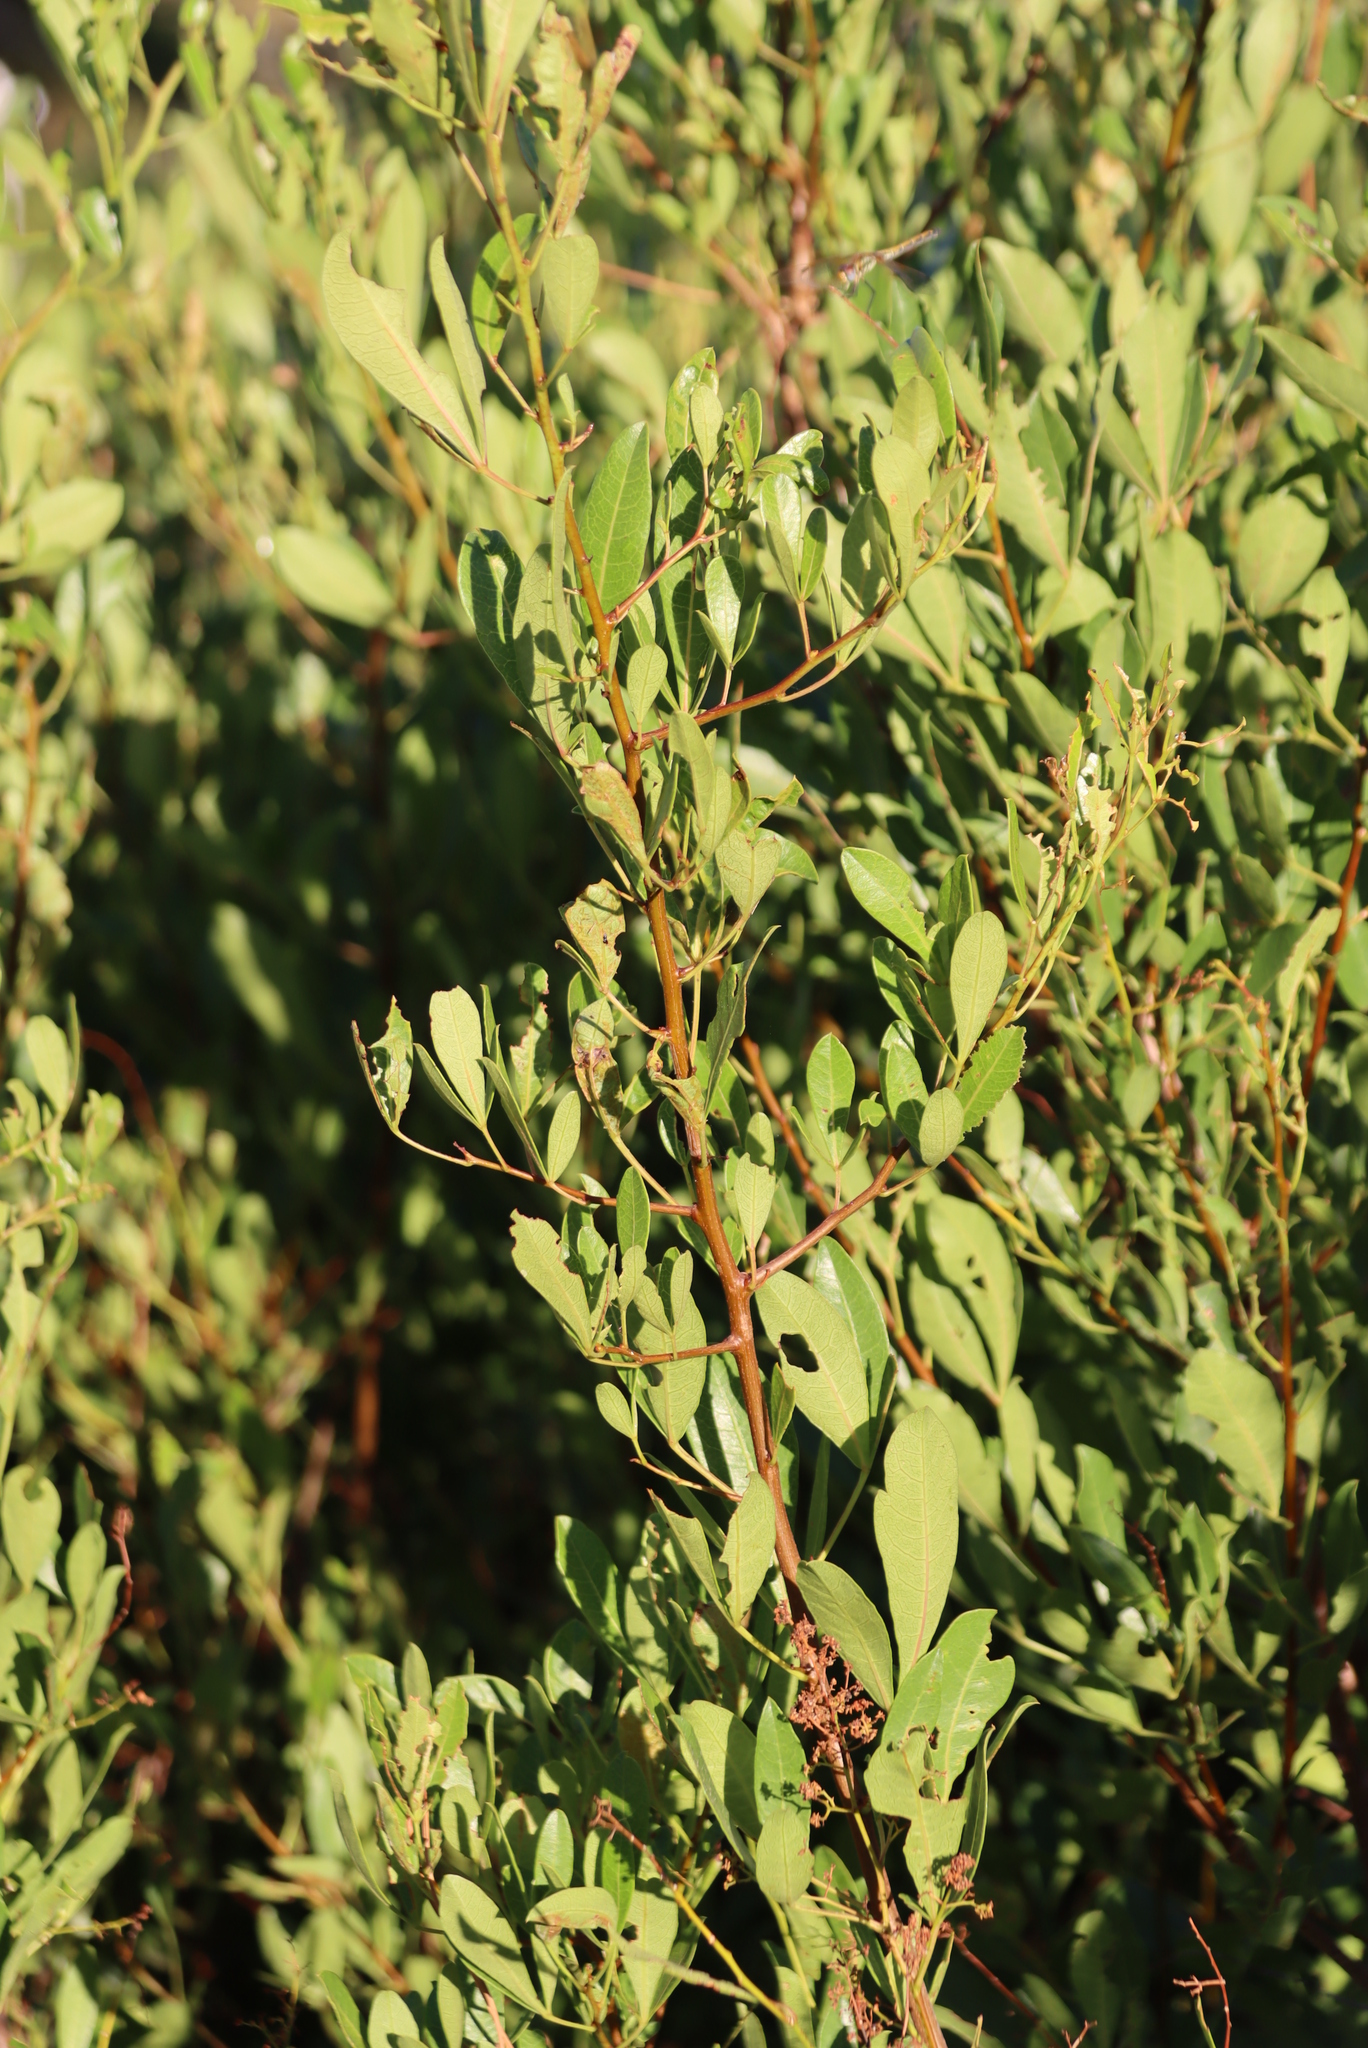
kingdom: Plantae
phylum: Tracheophyta
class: Magnoliopsida
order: Sapindales
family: Anacardiaceae
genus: Searsia
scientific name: Searsia laevigata
